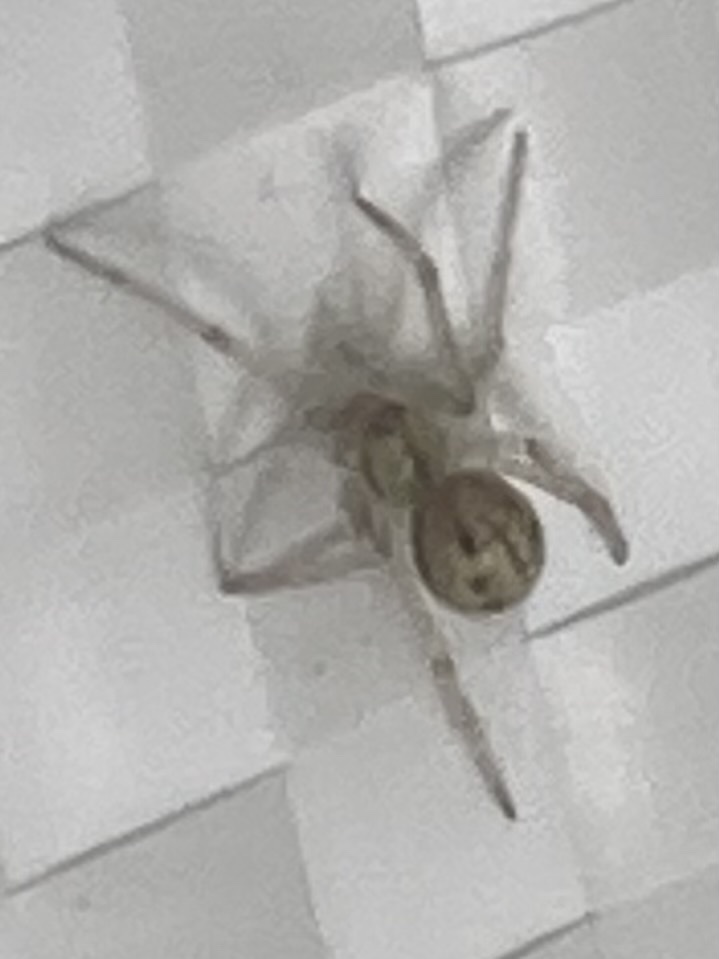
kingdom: Animalia
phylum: Arthropoda
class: Arachnida
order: Araneae
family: Theridiidae
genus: Enoplognatha
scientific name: Enoplognatha ovata
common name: Common candy-striped spider
